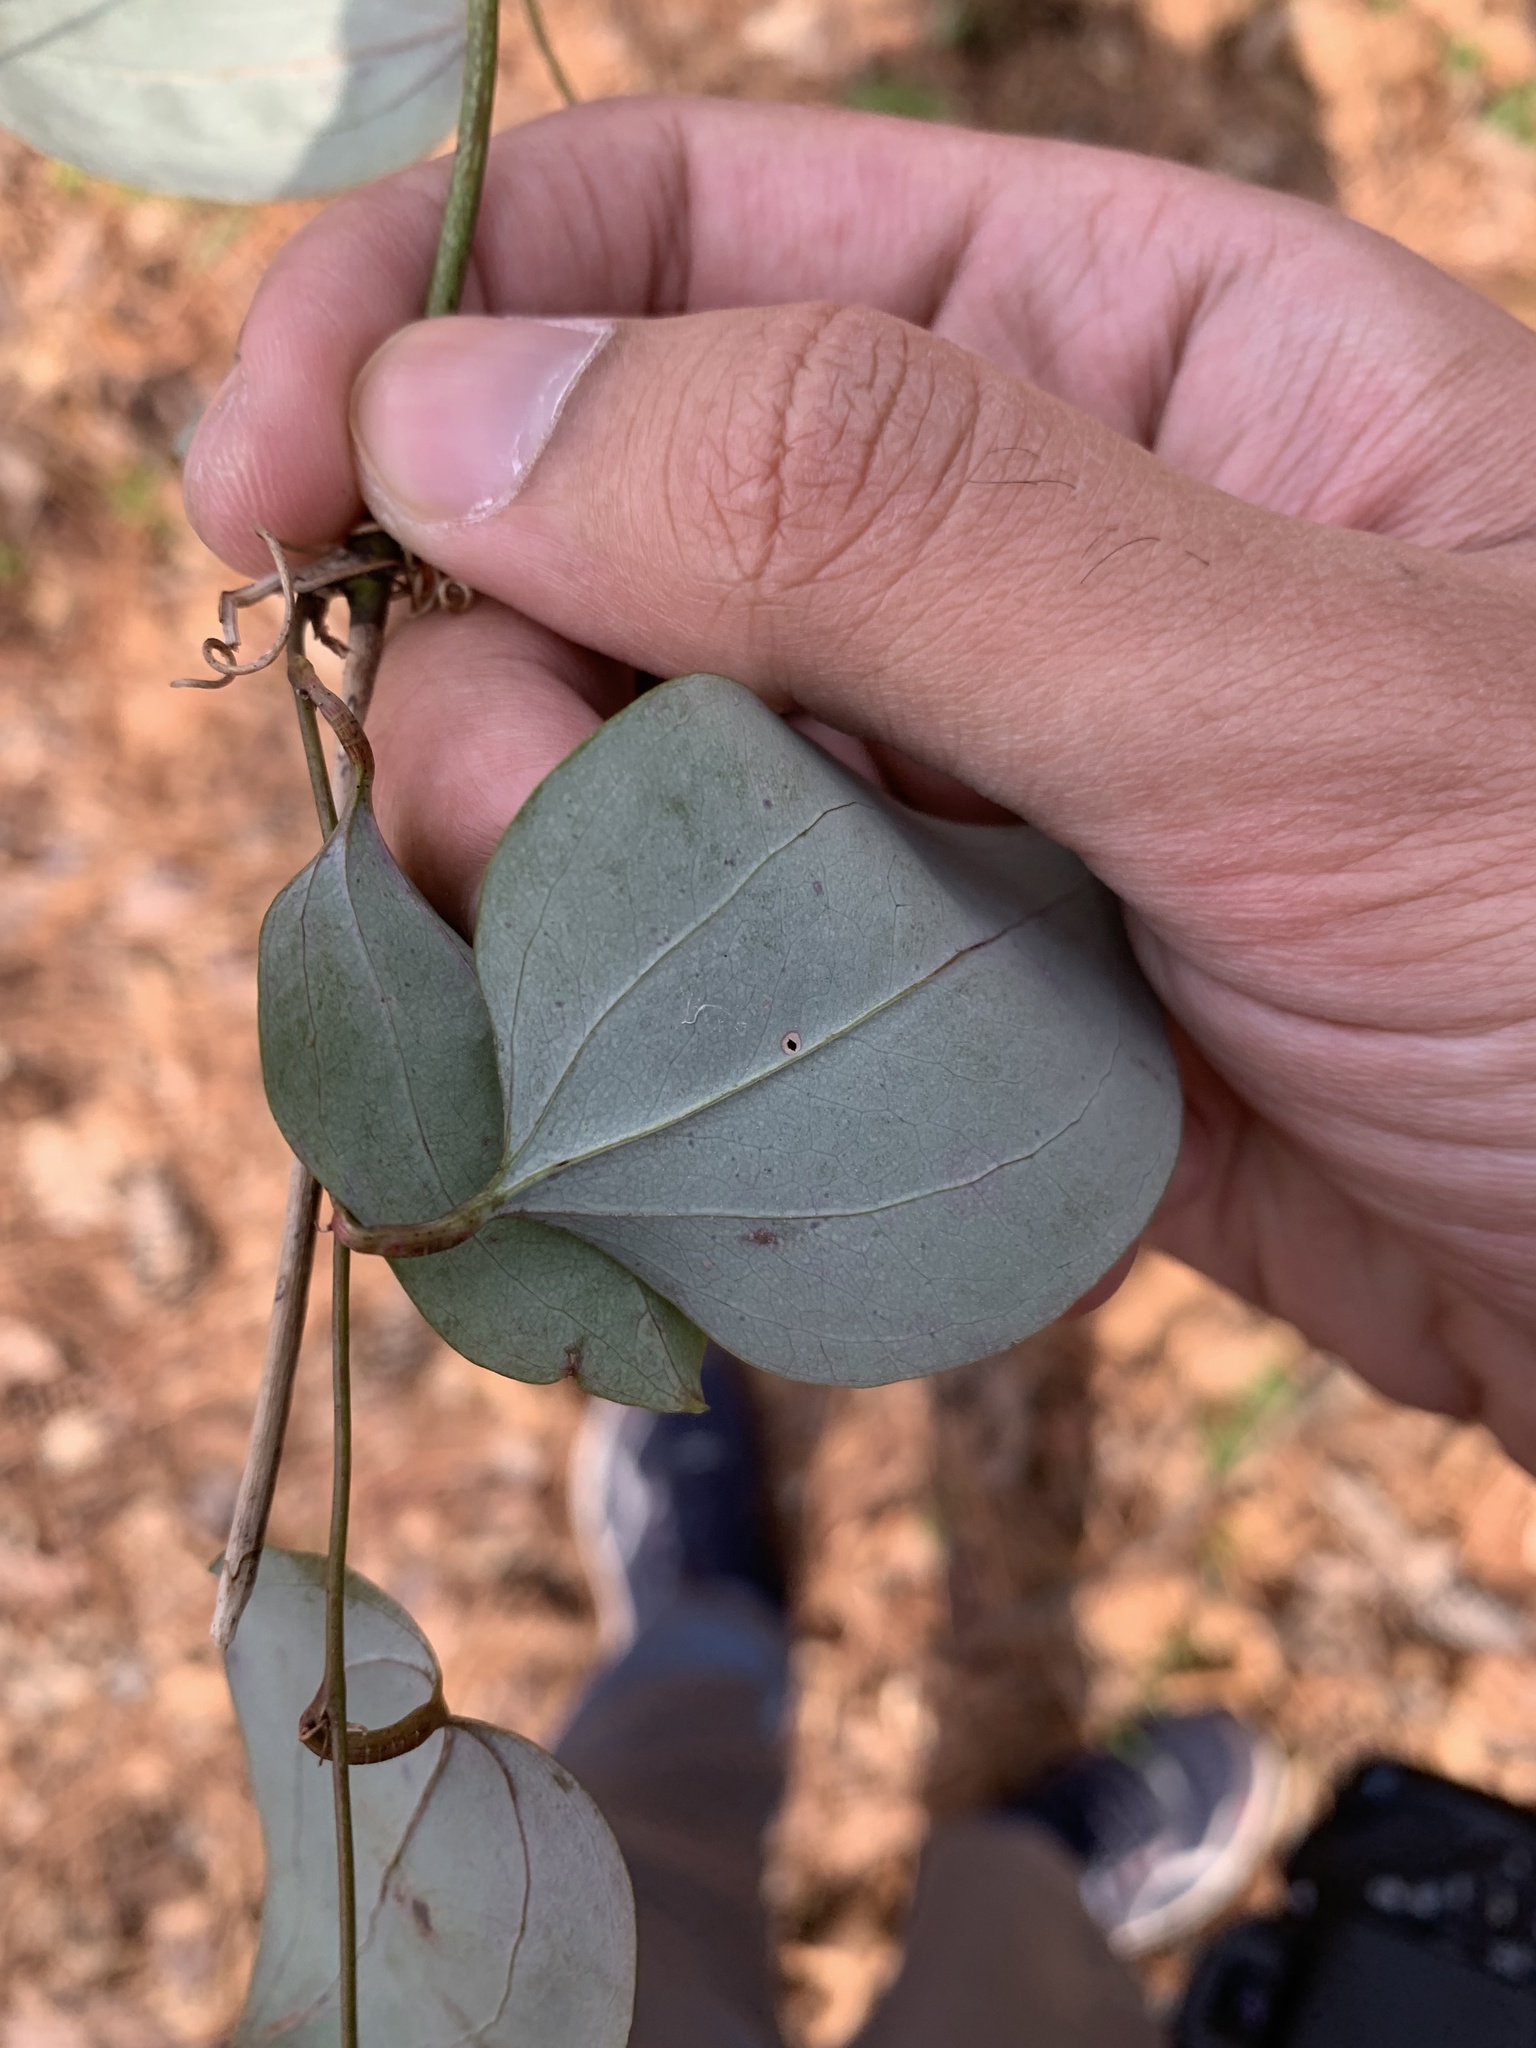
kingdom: Plantae
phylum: Tracheophyta
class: Liliopsida
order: Liliales
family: Smilacaceae
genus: Smilax
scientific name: Smilax glauca
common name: Cat greenbrier
